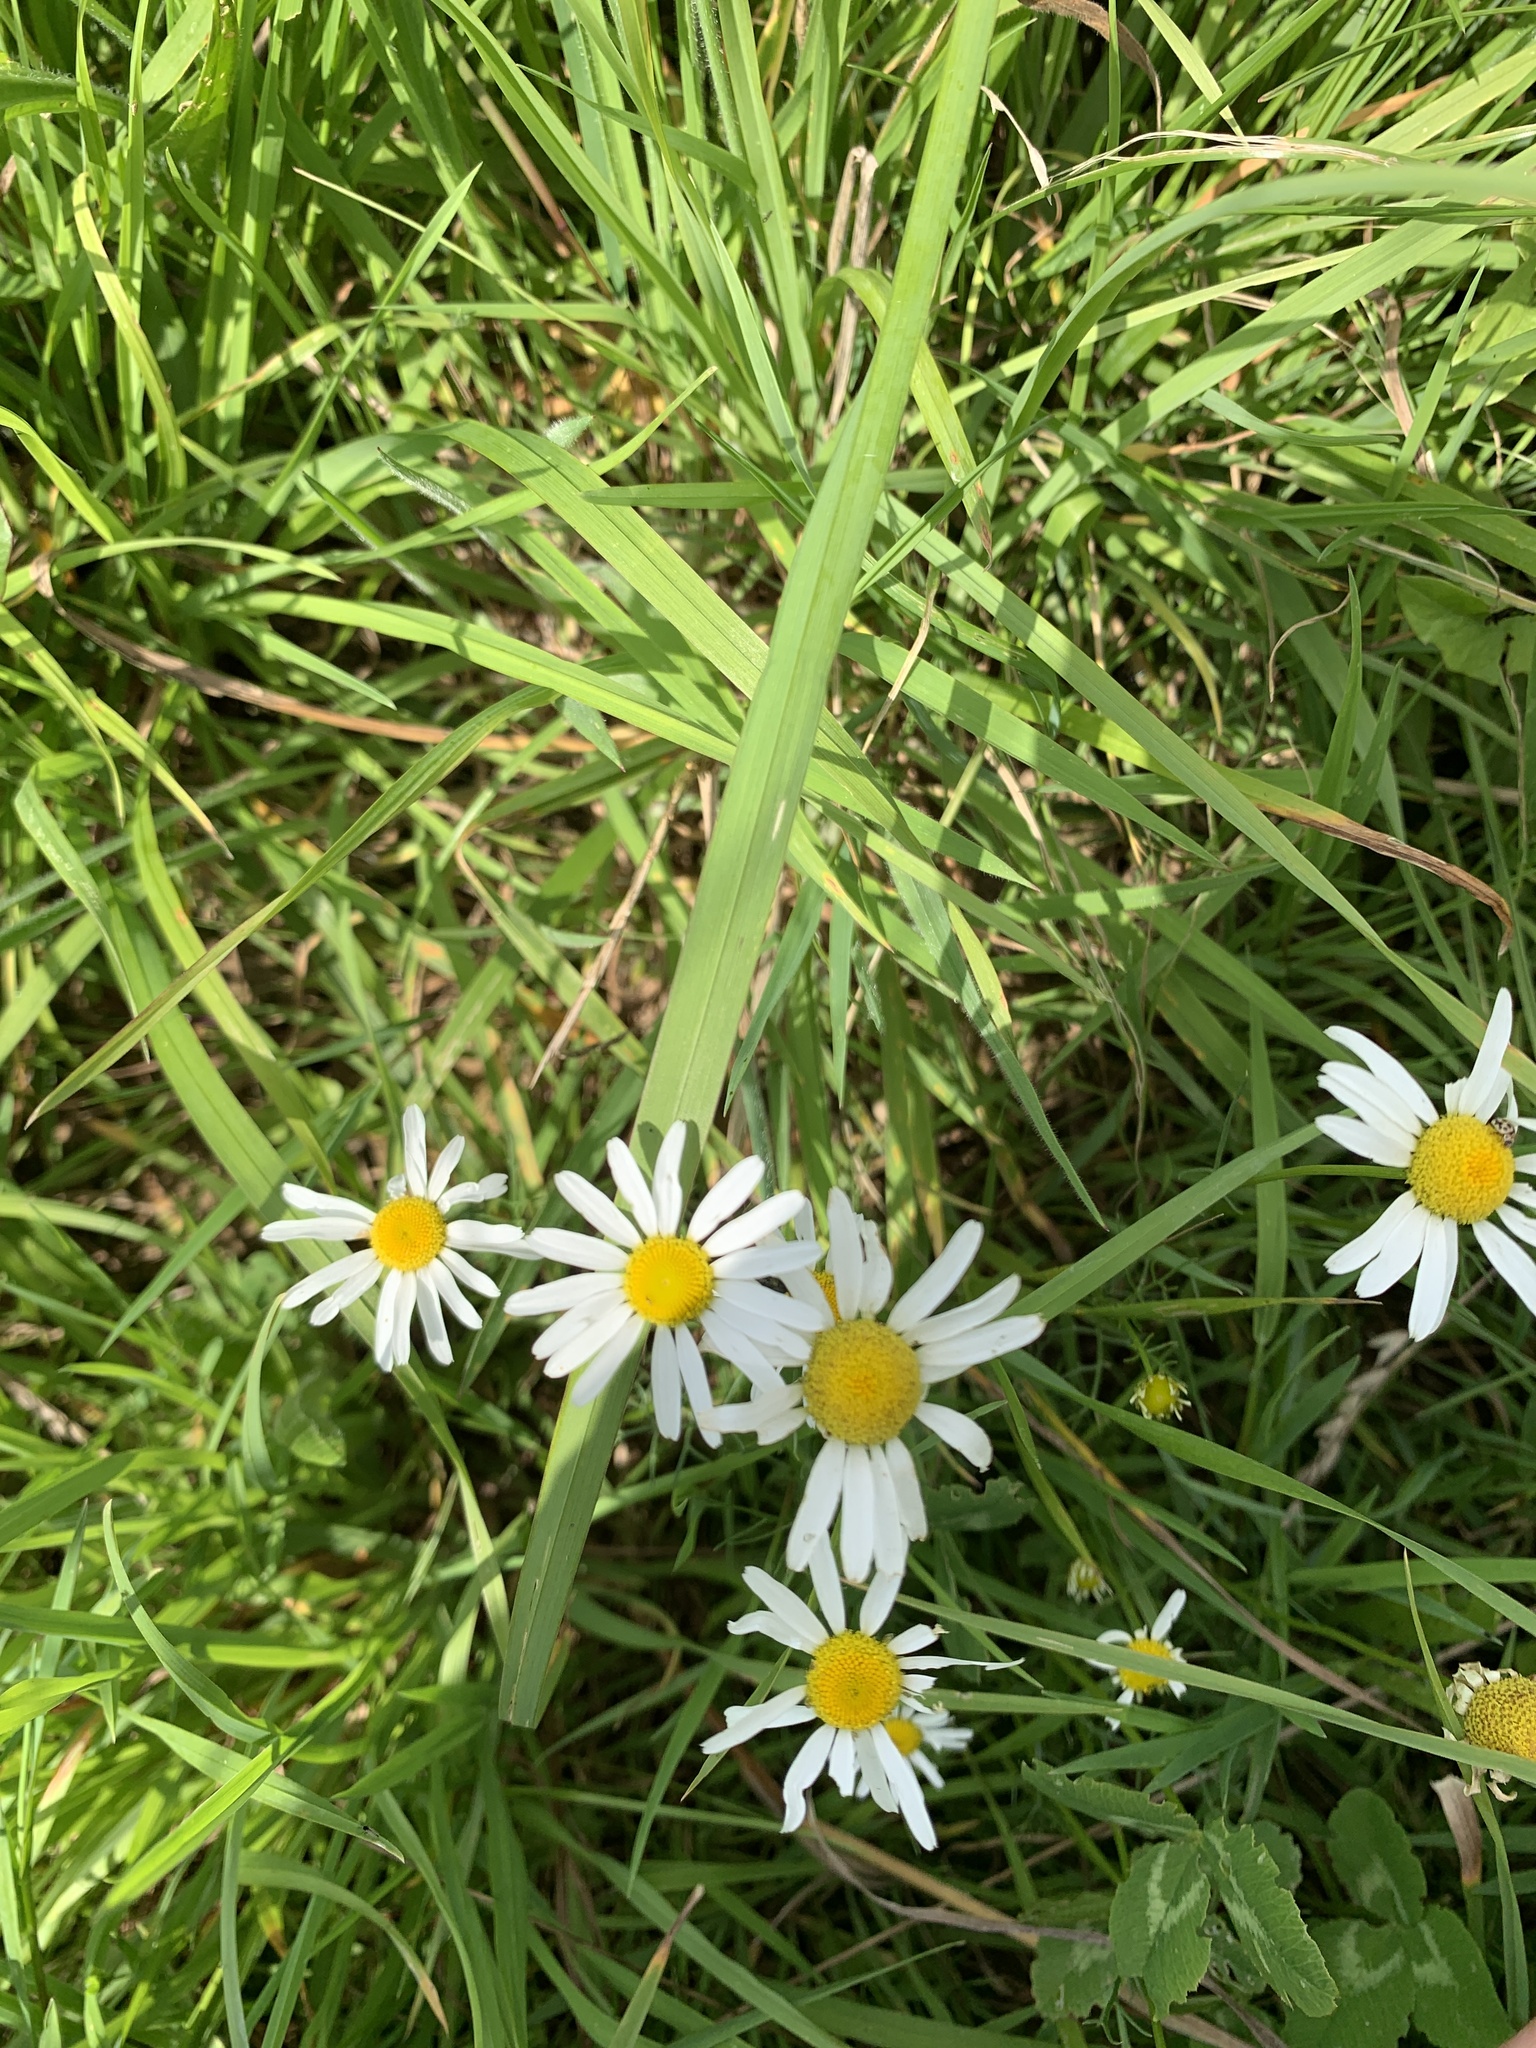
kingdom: Plantae
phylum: Tracheophyta
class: Magnoliopsida
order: Asterales
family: Asteraceae
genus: Tripleurospermum
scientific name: Tripleurospermum inodorum
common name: Scentless mayweed
